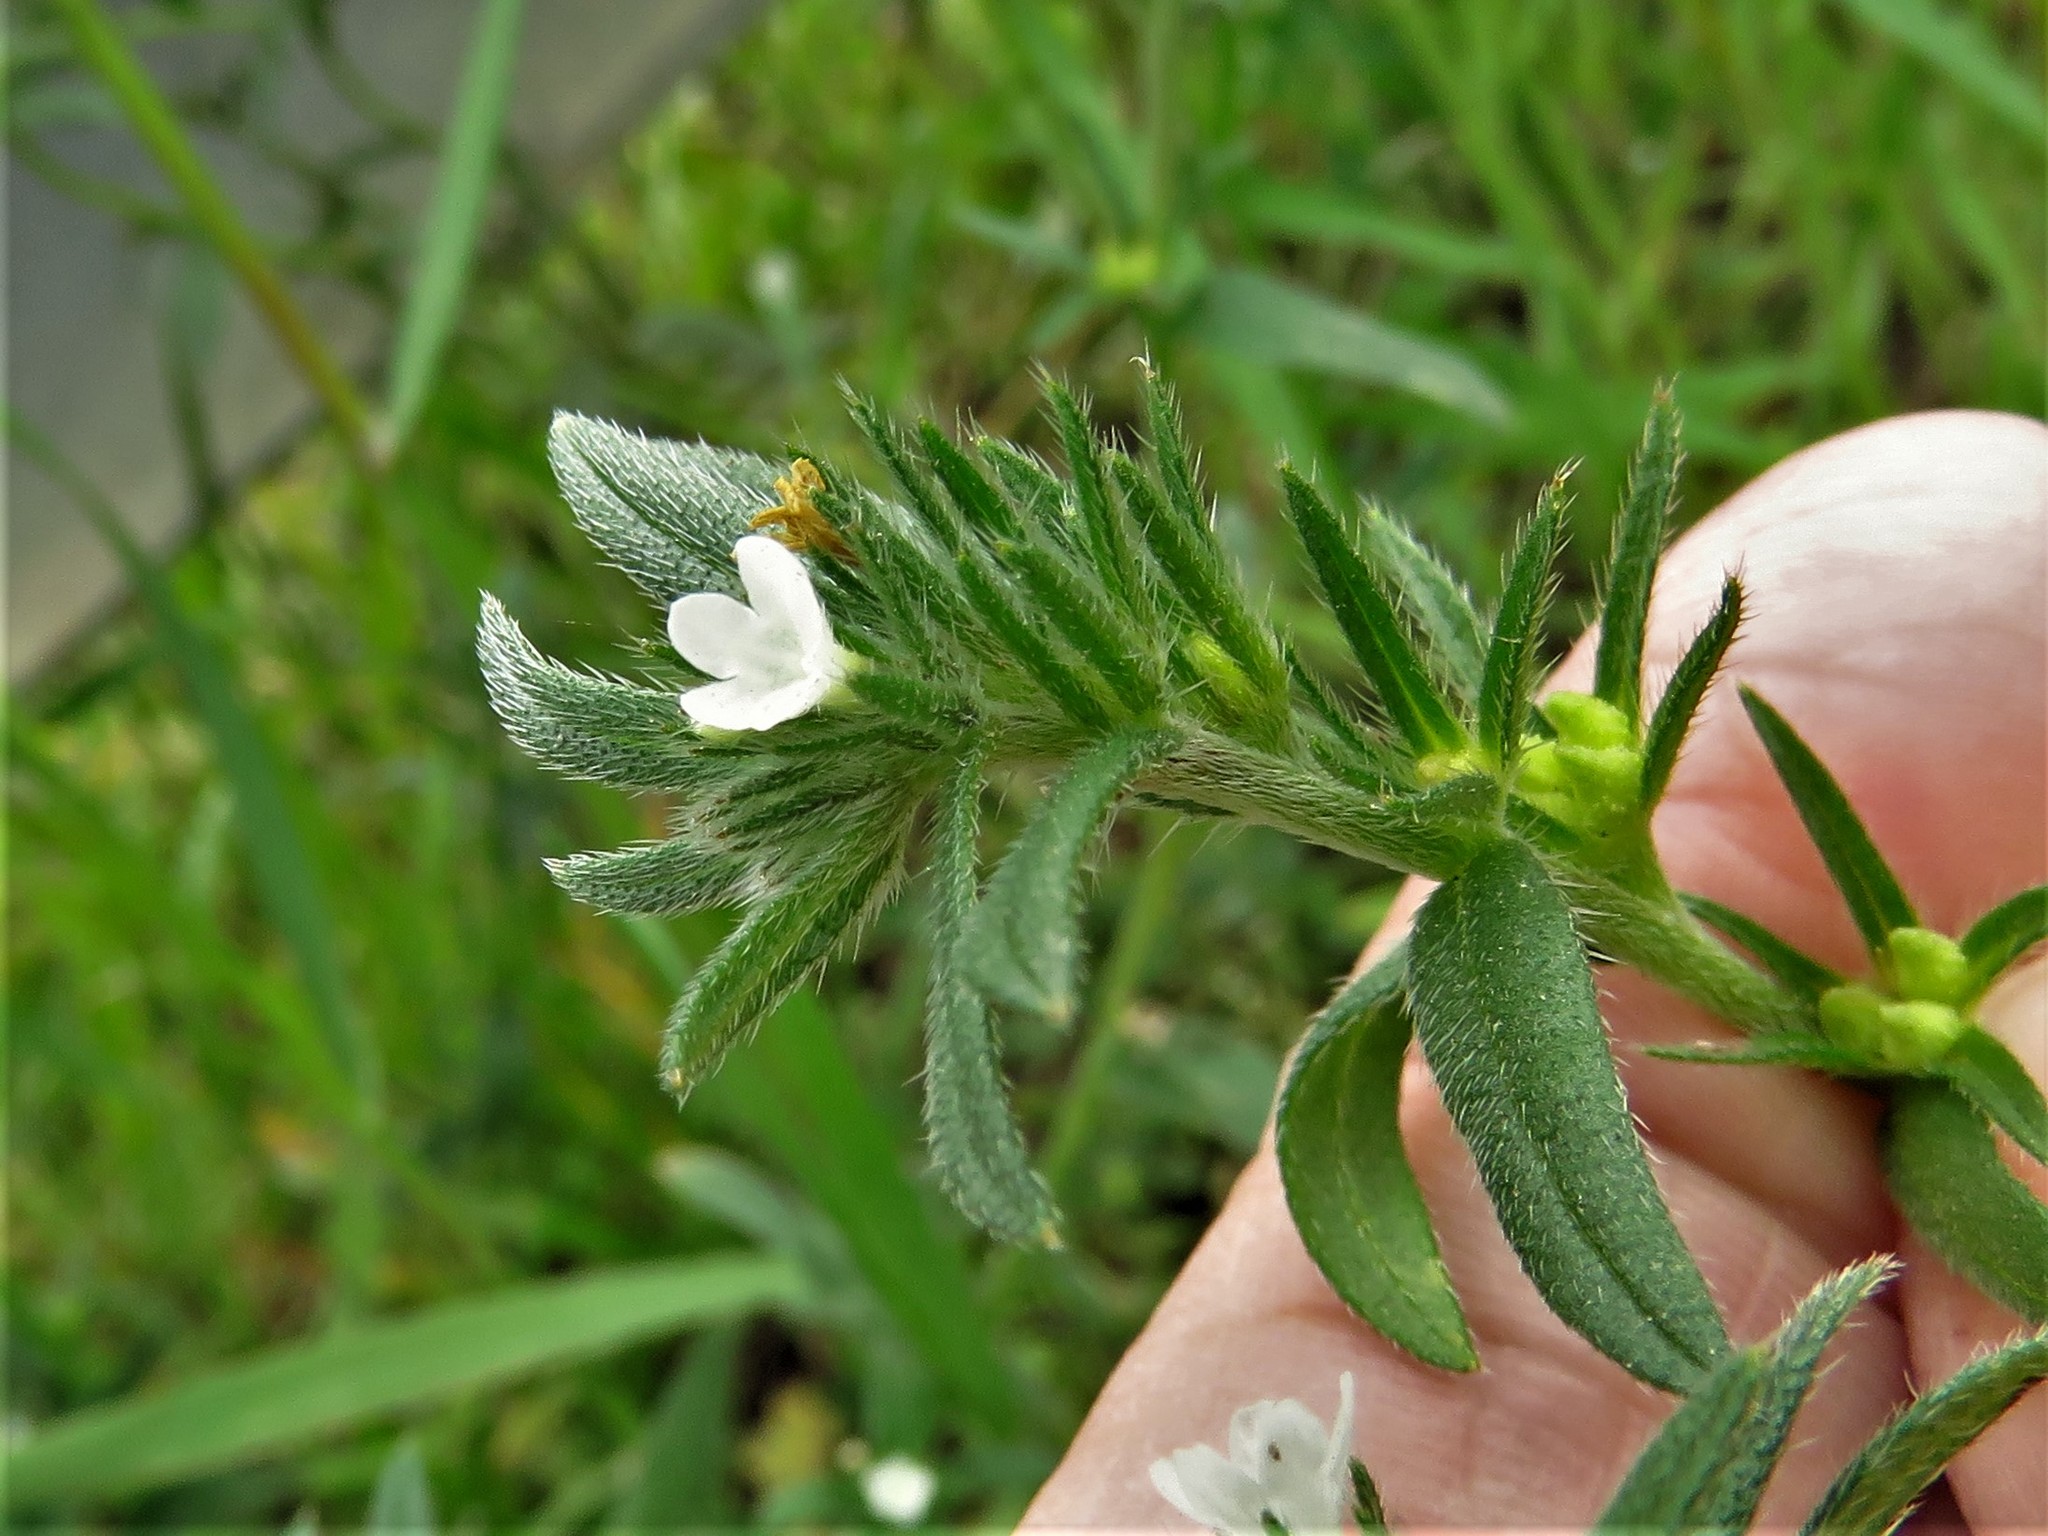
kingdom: Plantae
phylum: Tracheophyta
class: Magnoliopsida
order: Boraginales
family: Boraginaceae
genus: Buglossoides
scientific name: Buglossoides arvensis
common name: Corn gromwell
